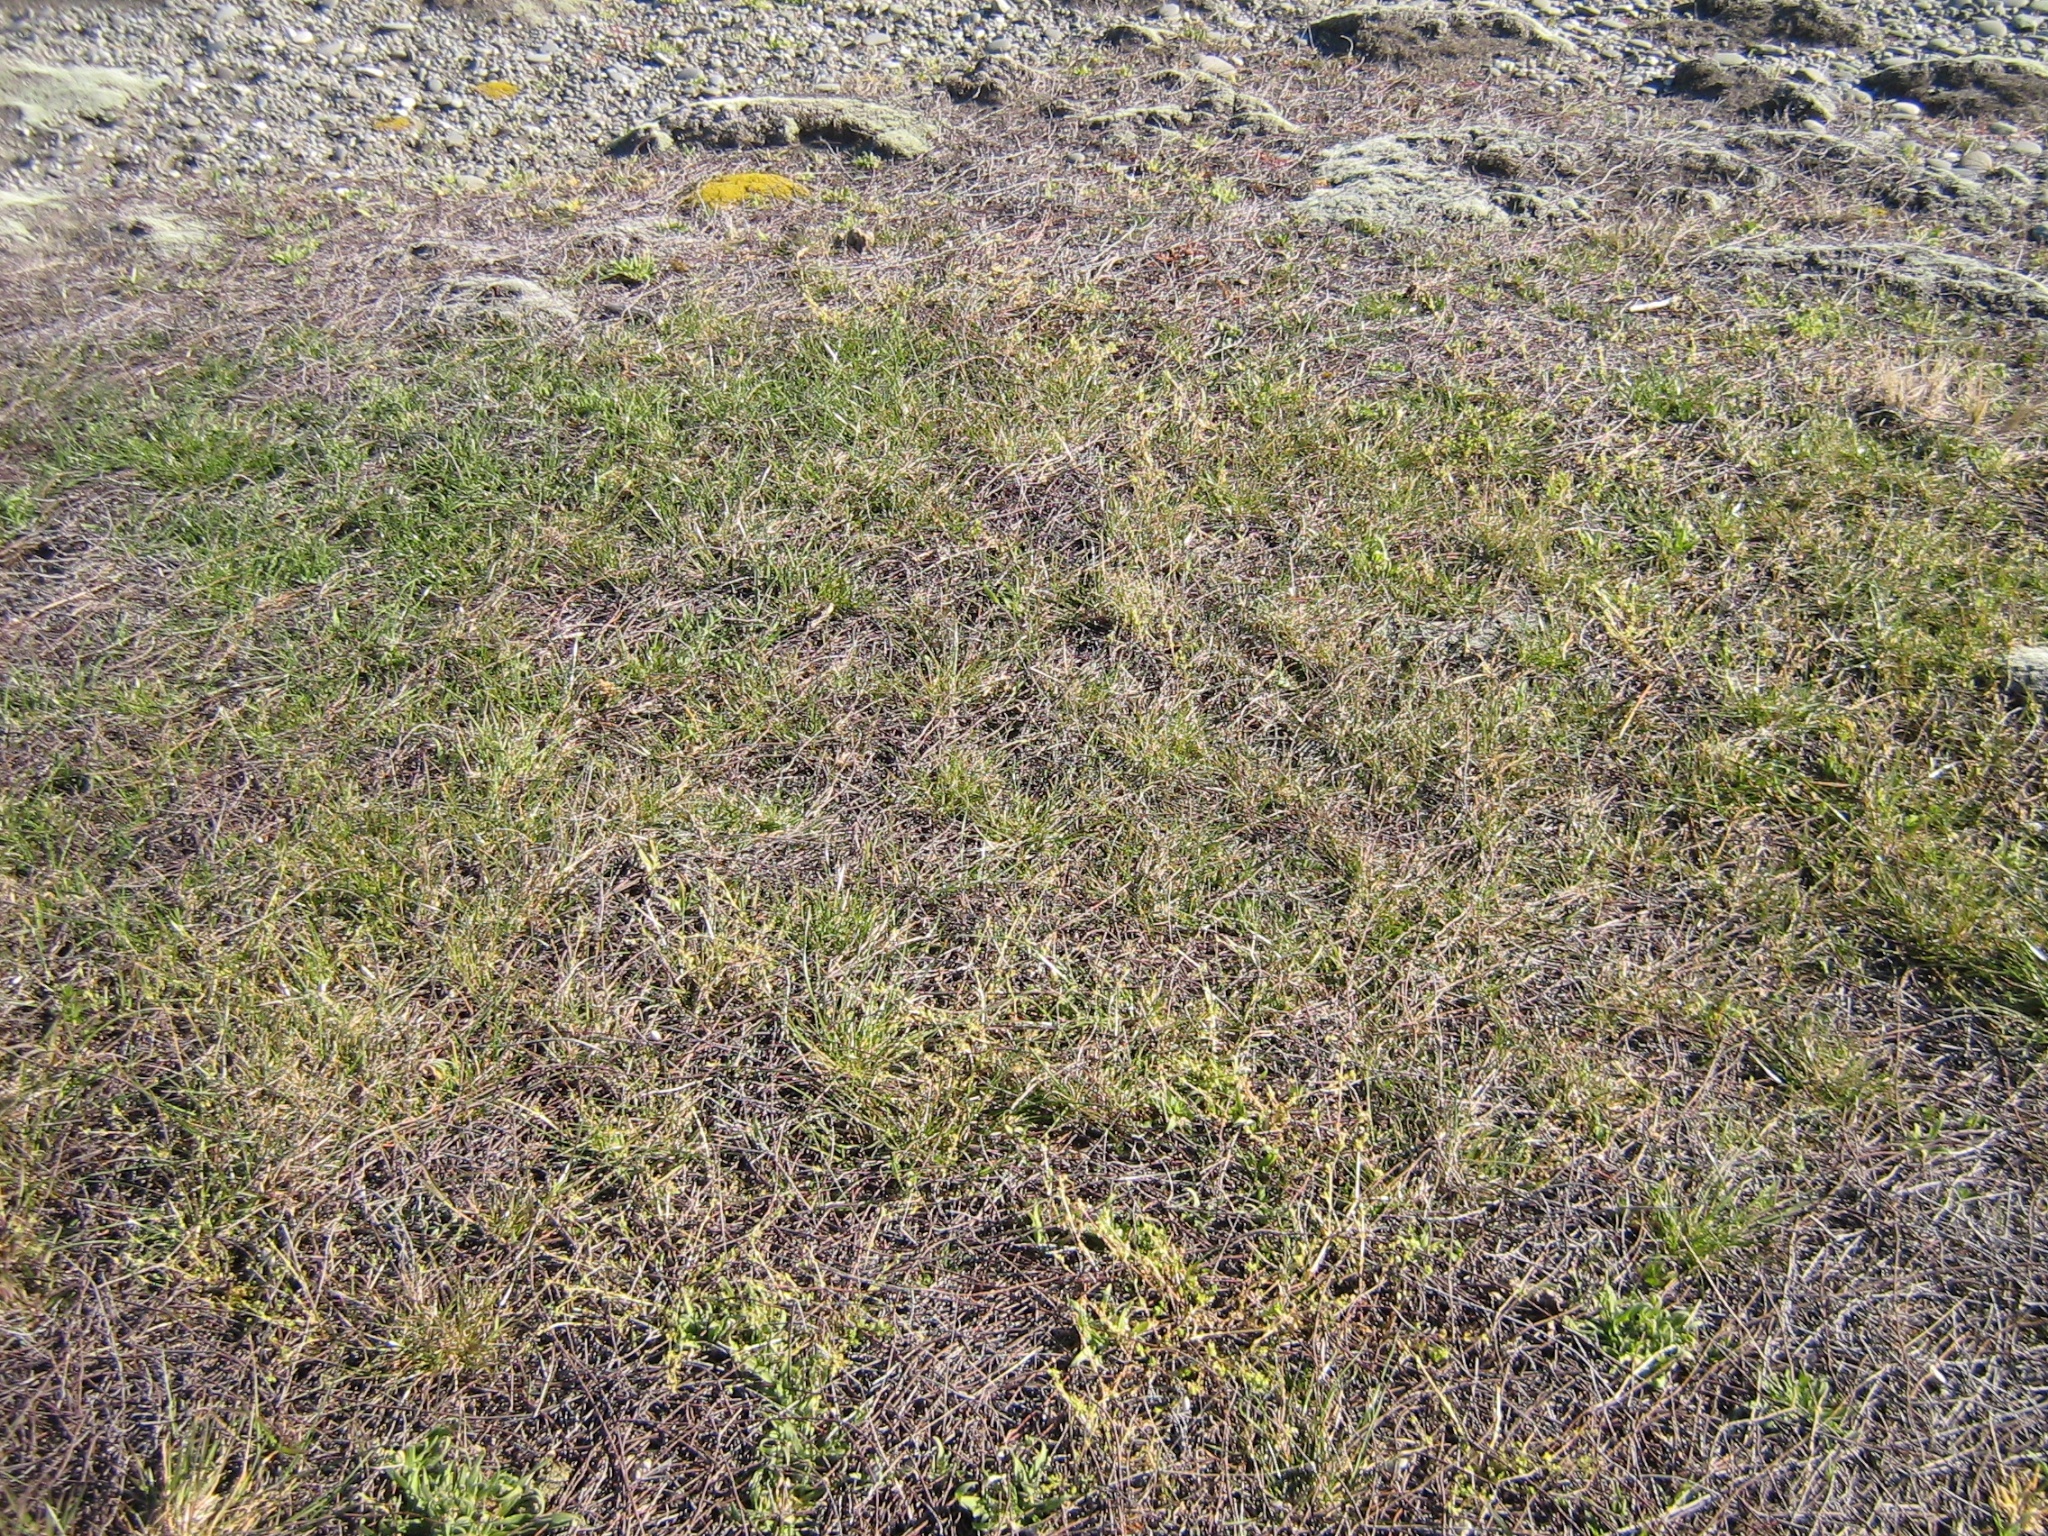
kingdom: Plantae
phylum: Tracheophyta
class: Liliopsida
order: Poales
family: Poaceae
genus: Holcus
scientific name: Holcus lanatus
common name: Yorkshire-fog
